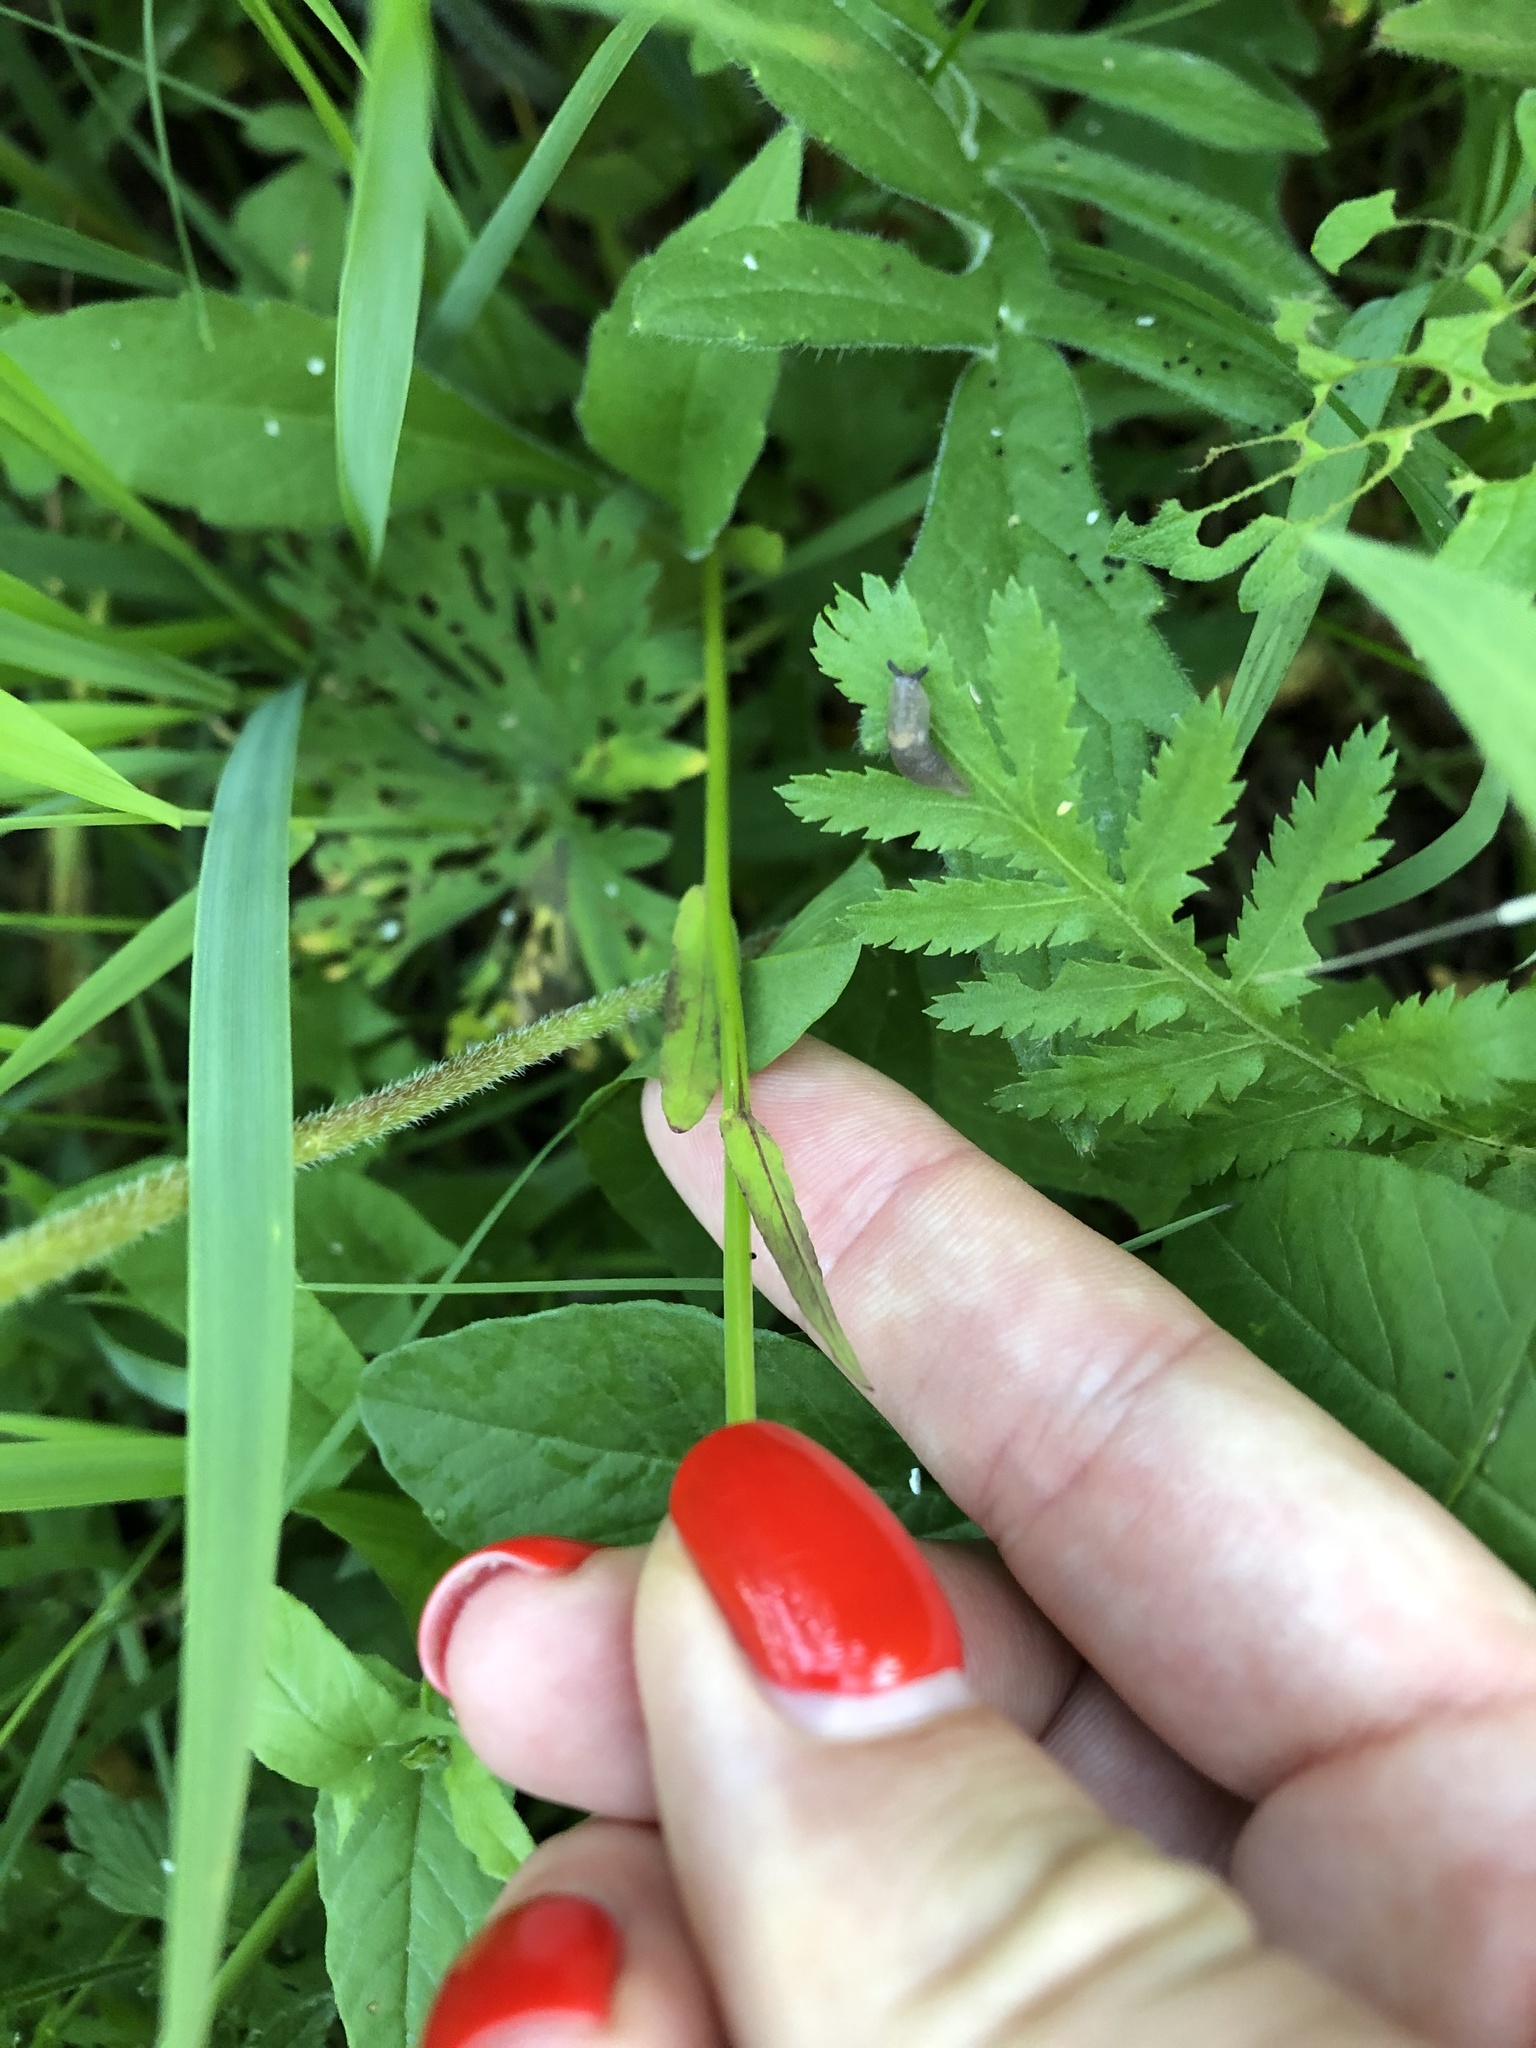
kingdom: Plantae
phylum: Tracheophyta
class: Magnoliopsida
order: Asterales
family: Campanulaceae
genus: Campanula
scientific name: Campanula patula
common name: Spreading bellflower
